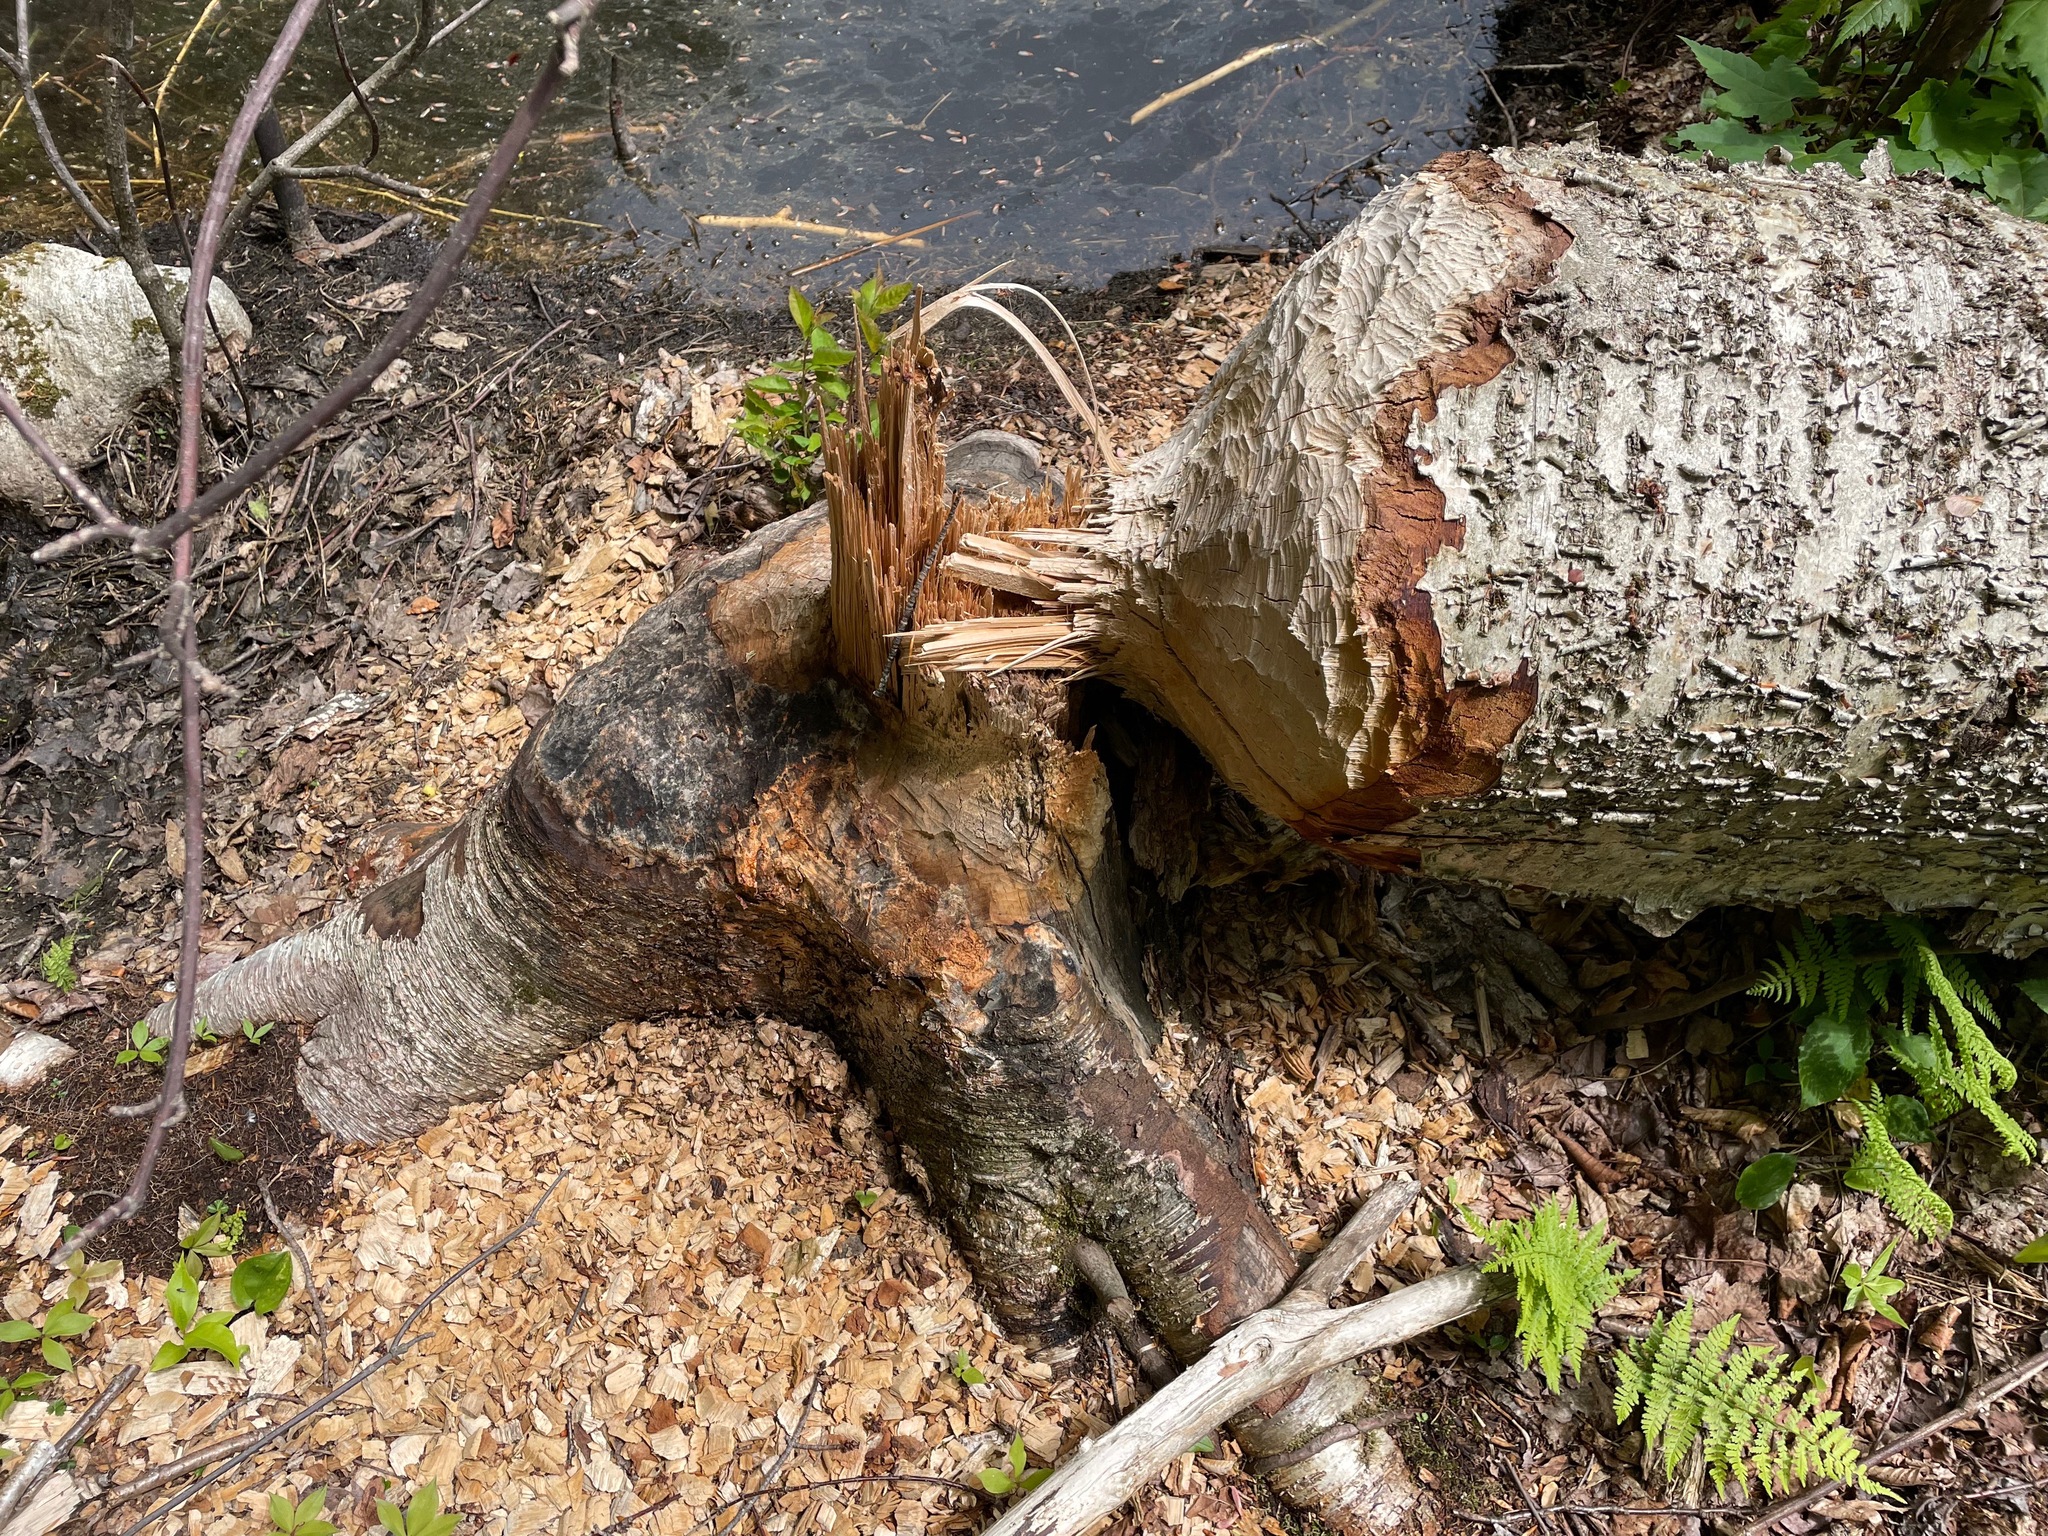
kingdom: Animalia
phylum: Chordata
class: Mammalia
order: Rodentia
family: Castoridae
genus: Castor
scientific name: Castor canadensis
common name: American beaver
